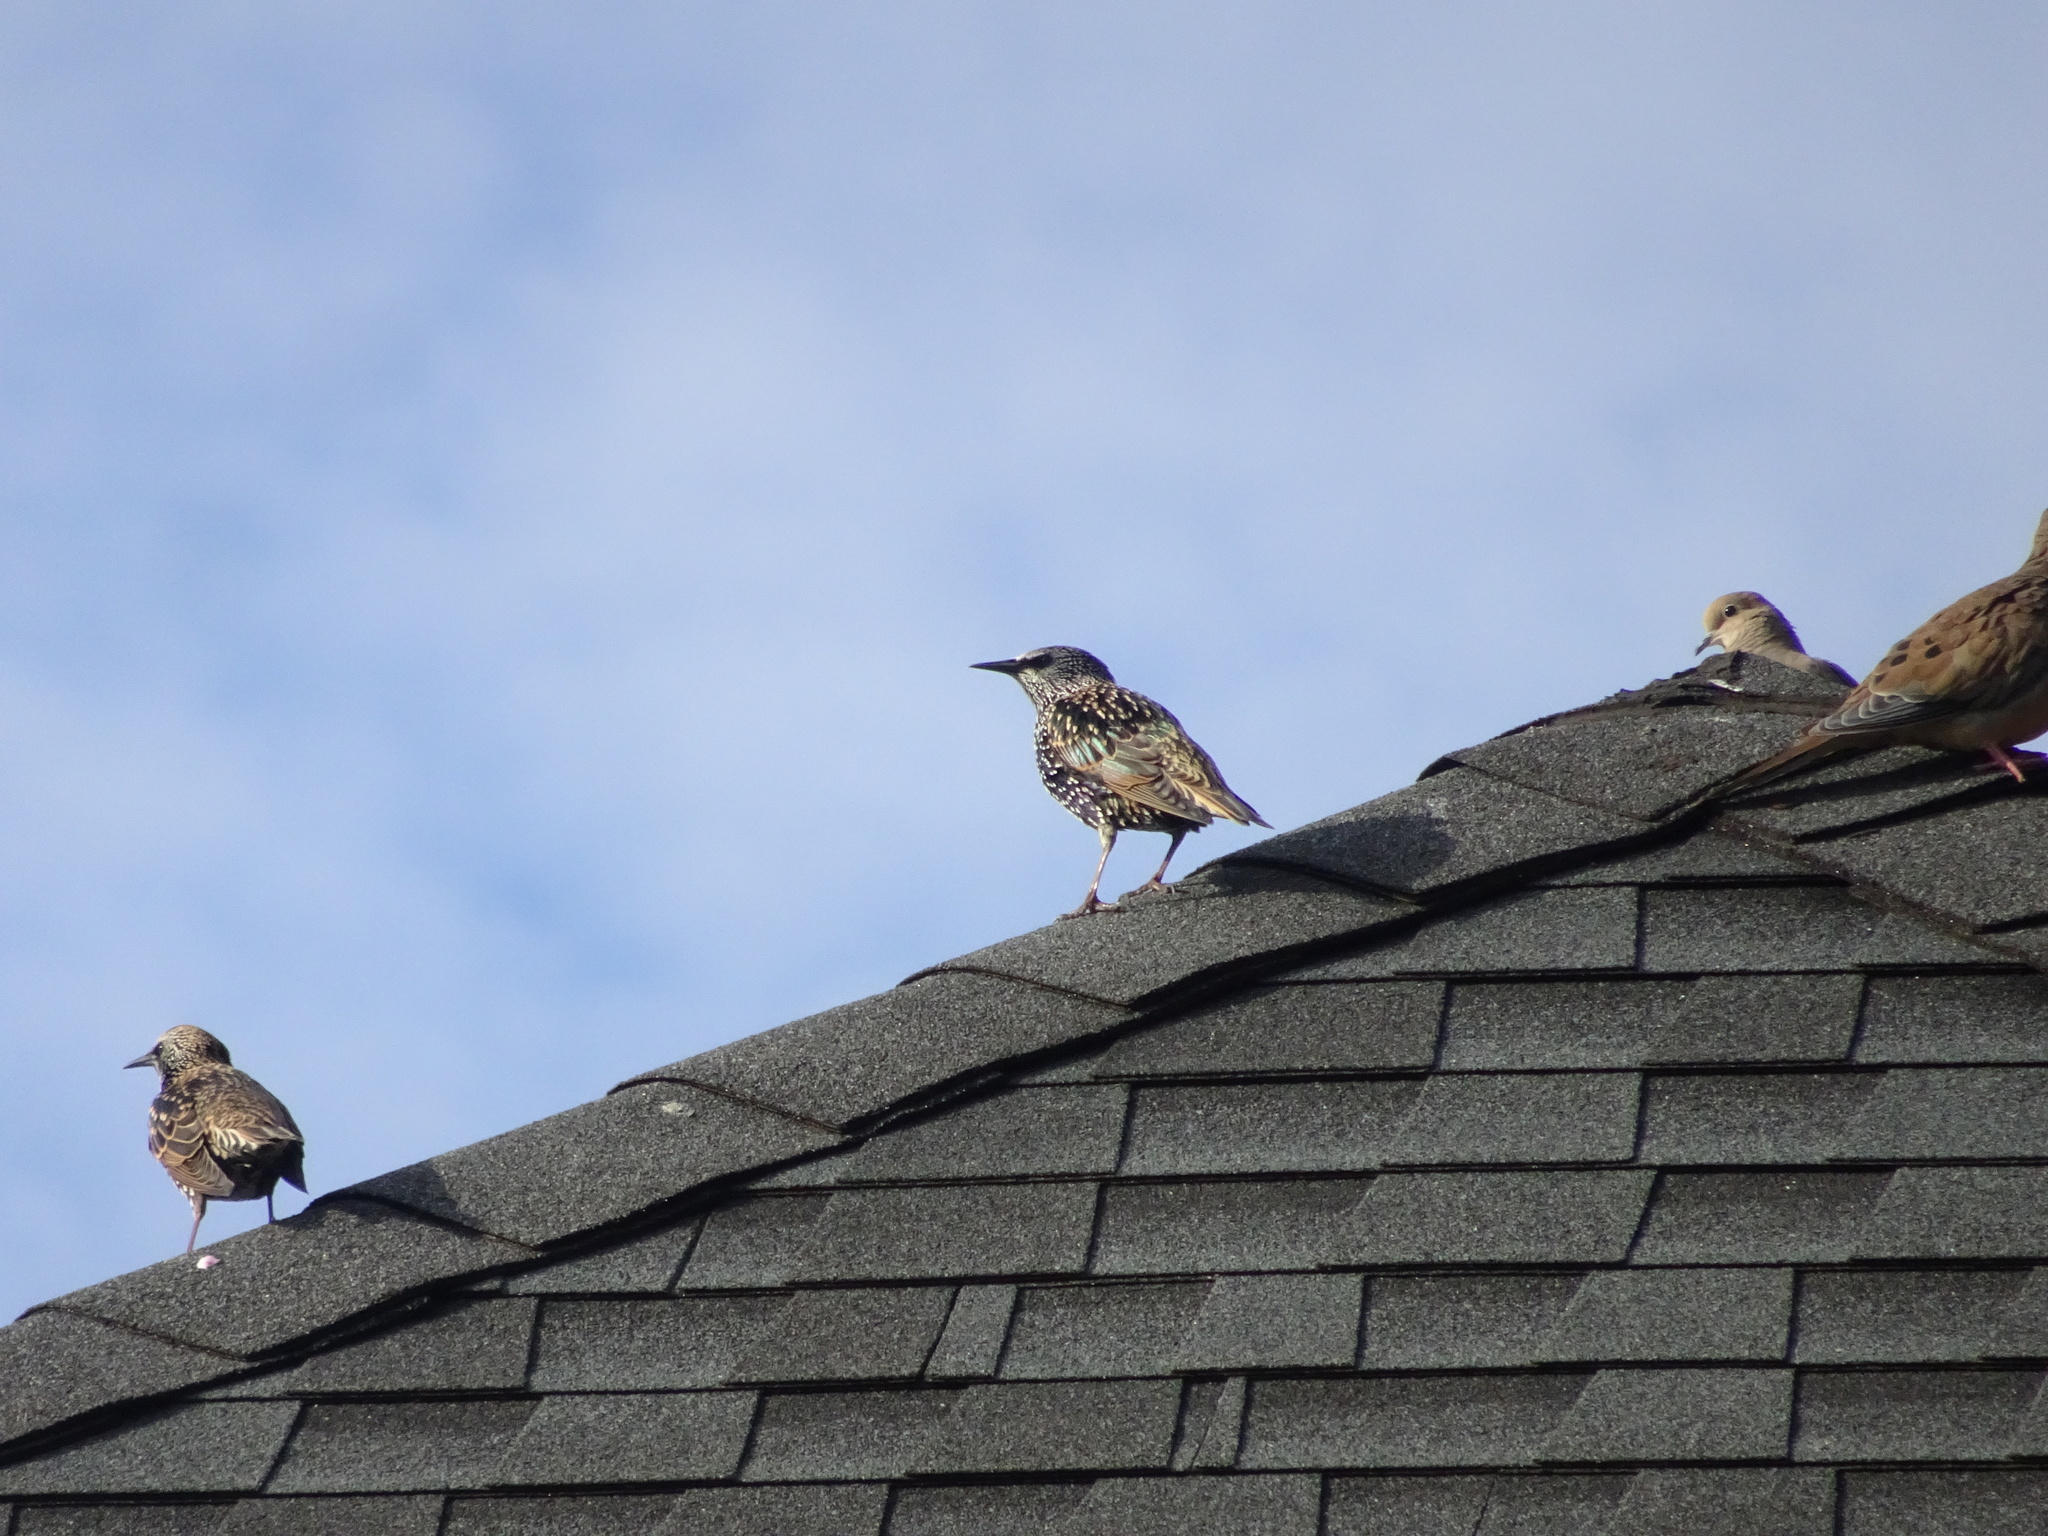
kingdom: Animalia
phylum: Chordata
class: Aves
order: Passeriformes
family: Sturnidae
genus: Sturnus
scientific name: Sturnus vulgaris
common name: Common starling
